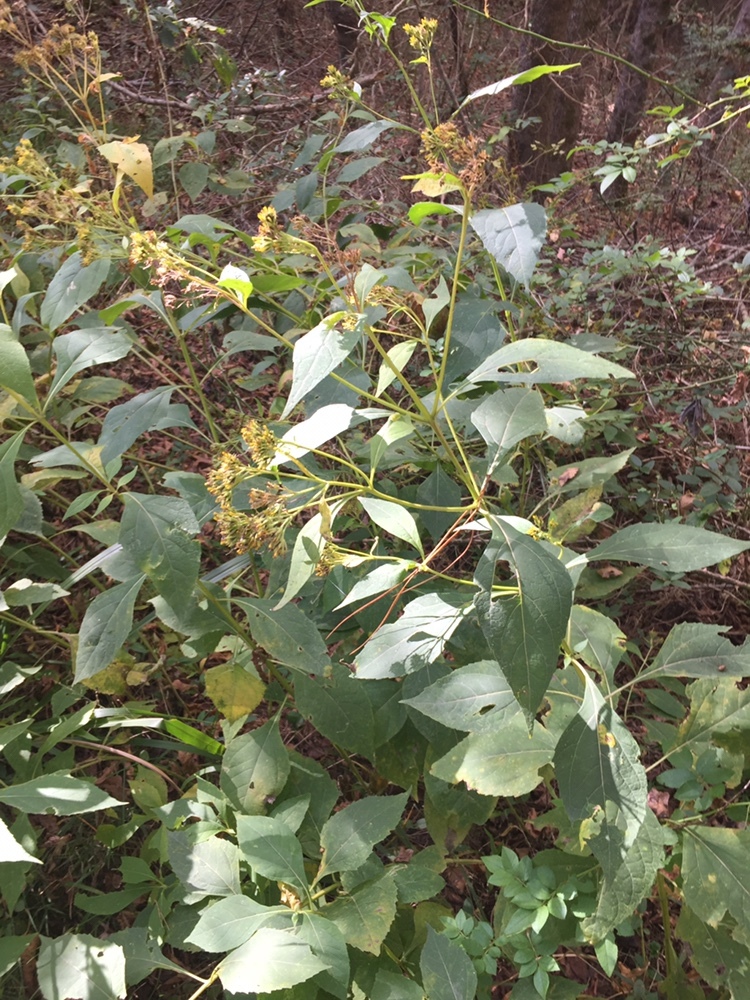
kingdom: Plantae
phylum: Tracheophyta
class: Magnoliopsida
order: Asterales
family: Asteraceae
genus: Verbesina
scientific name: Verbesina occidentalis
